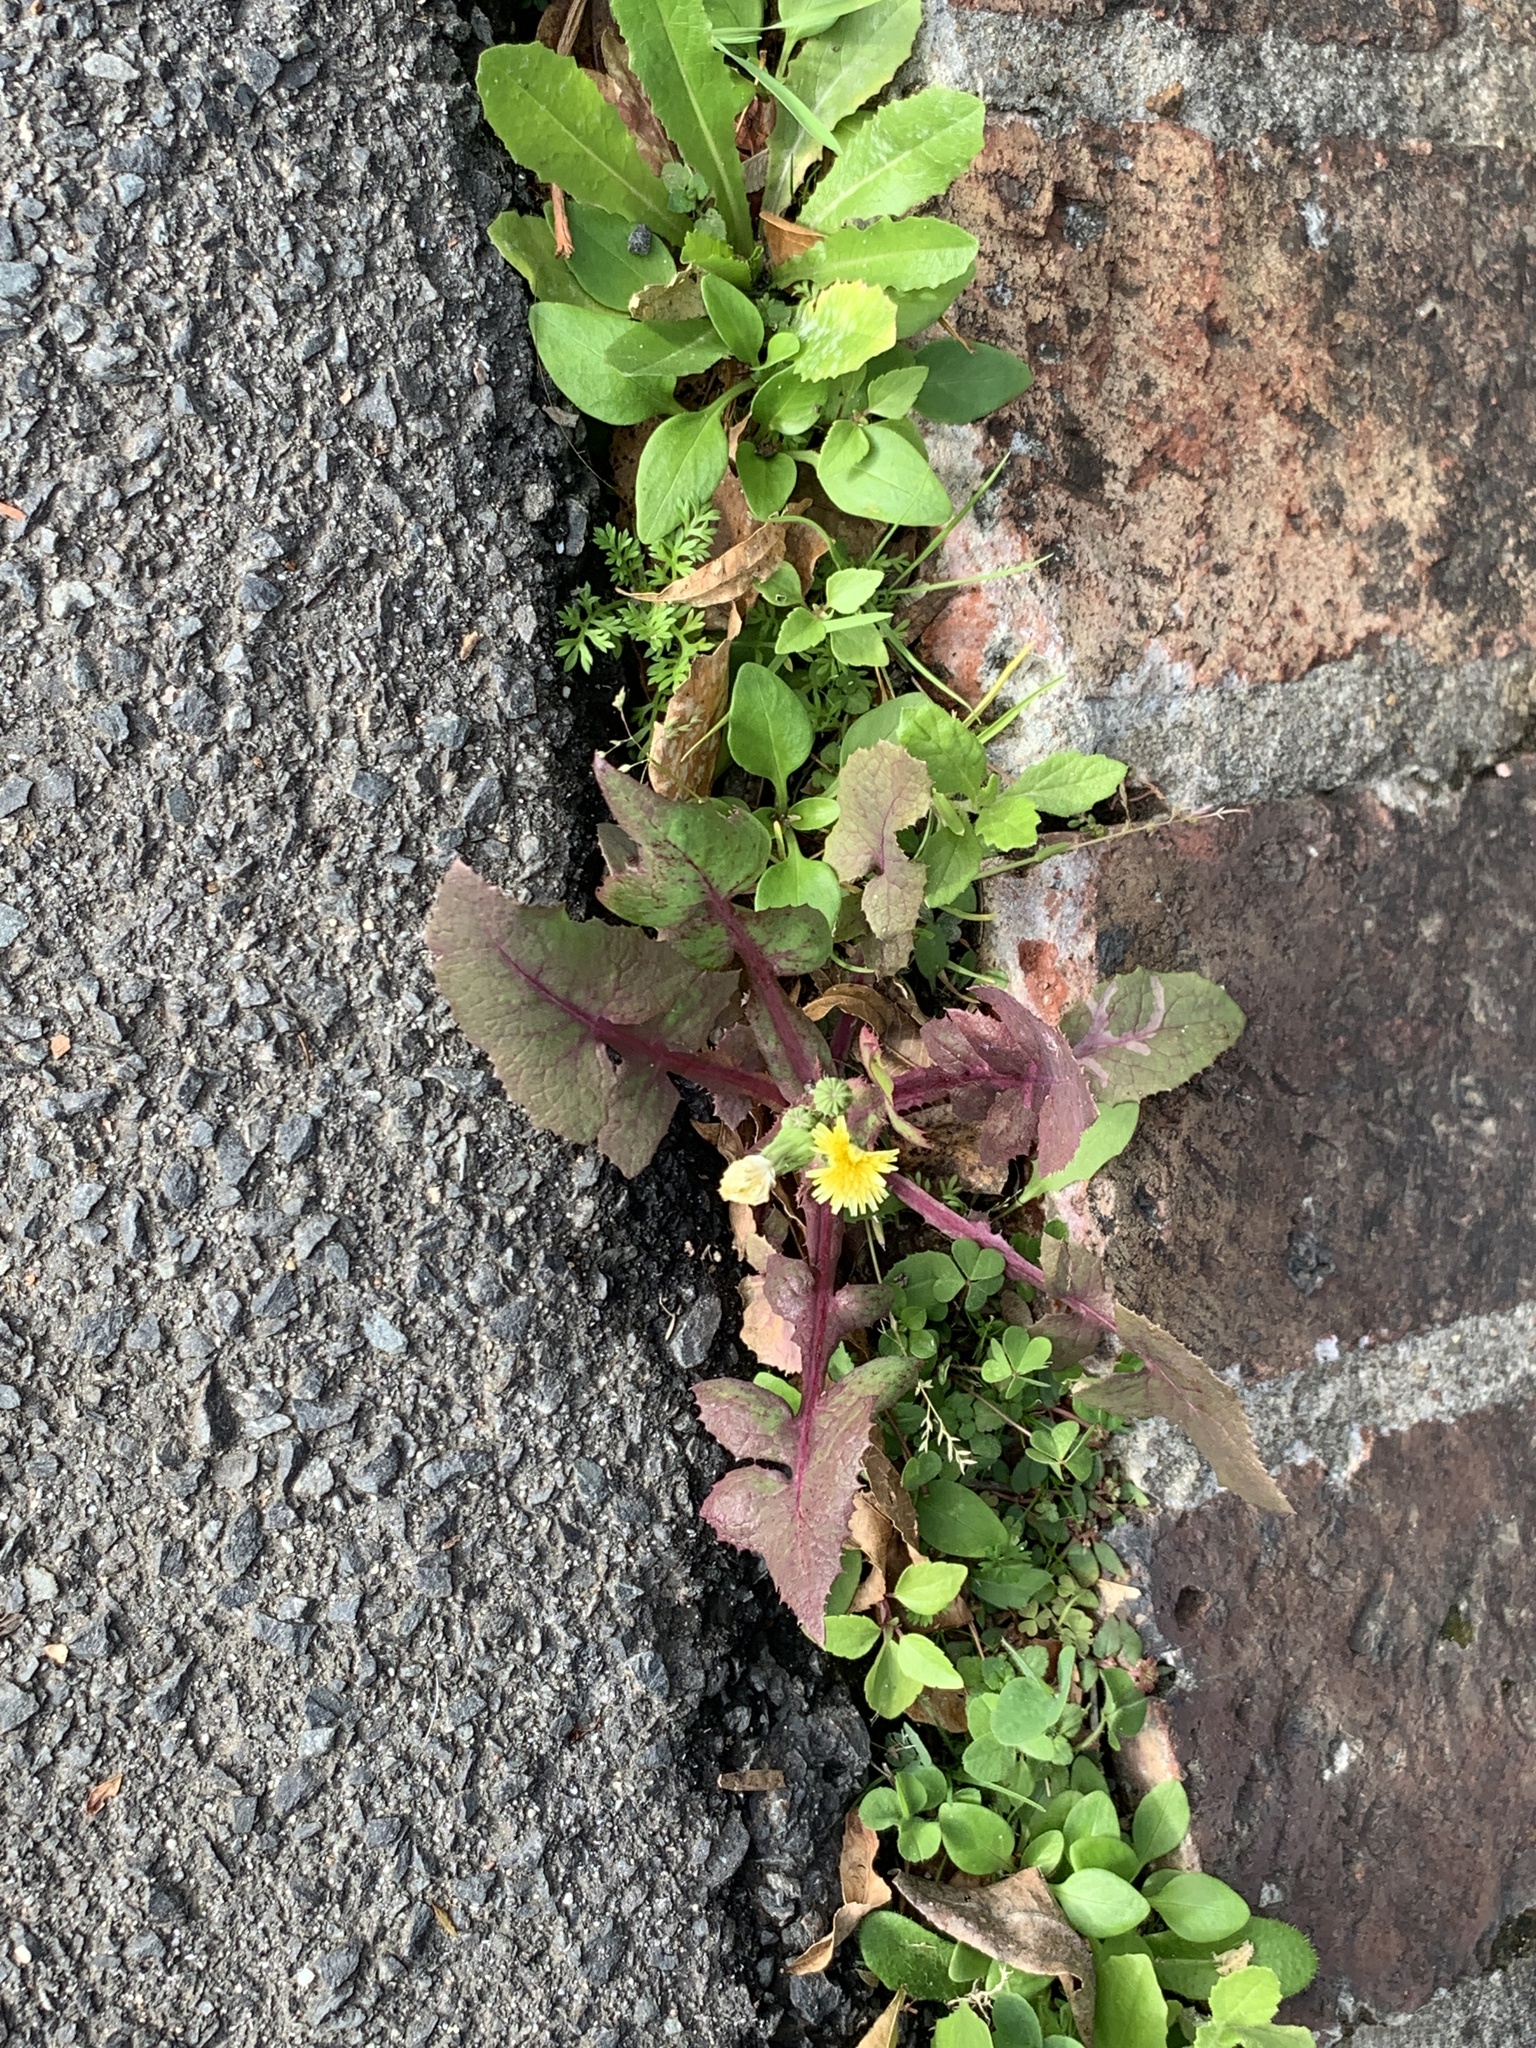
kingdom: Plantae
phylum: Tracheophyta
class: Magnoliopsida
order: Asterales
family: Asteraceae
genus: Sonchus
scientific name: Sonchus oleraceus
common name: Common sowthistle
